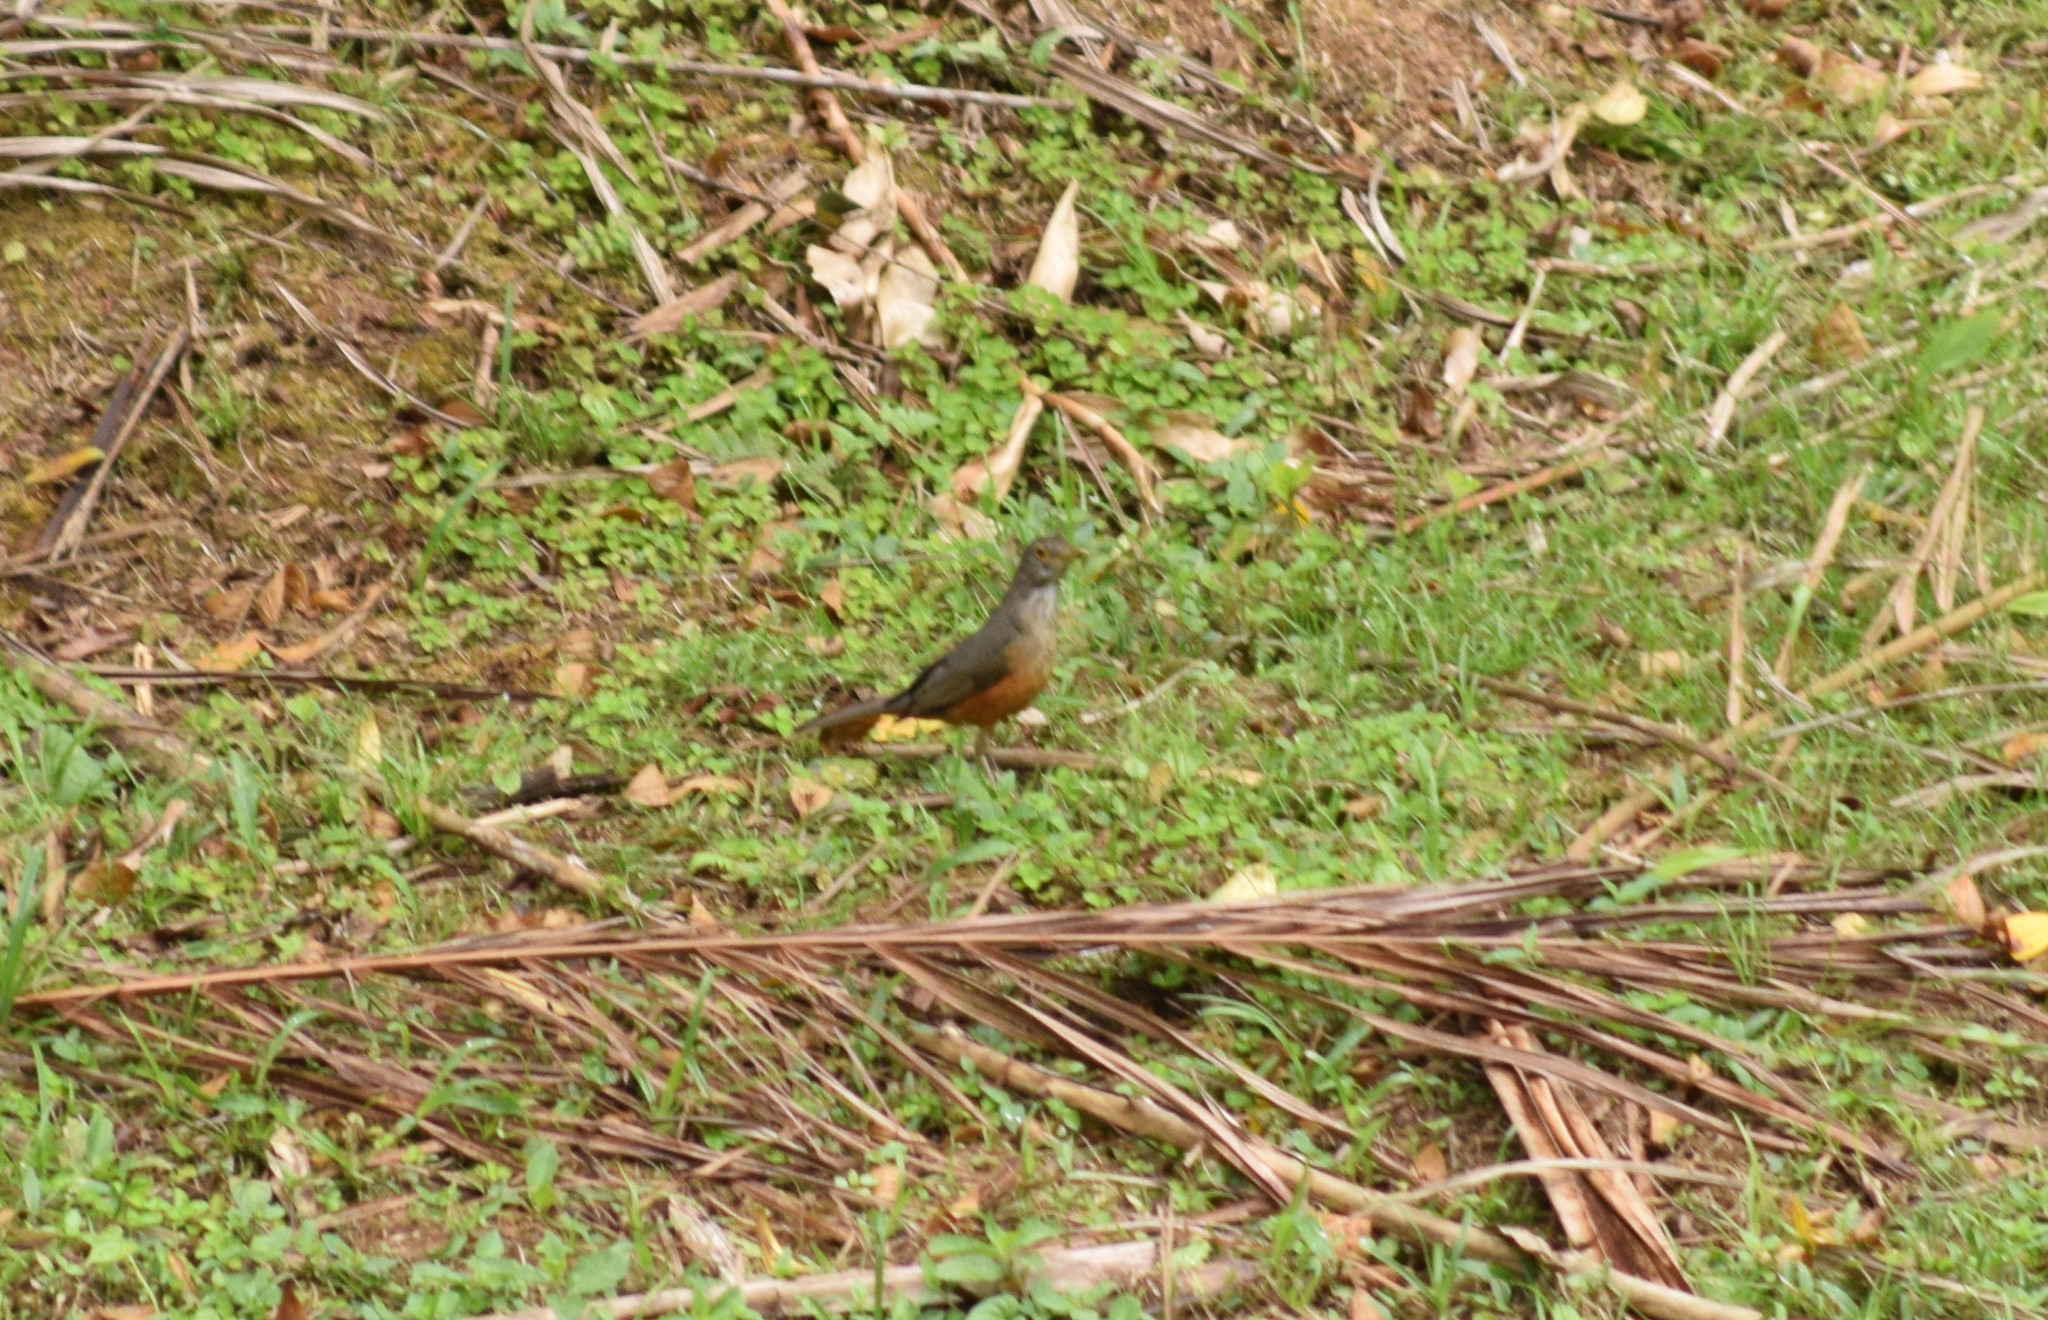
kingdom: Animalia
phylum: Chordata
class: Aves
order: Passeriformes
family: Turdidae
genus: Turdus
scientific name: Turdus rufiventris
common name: Rufous-bellied thrush
